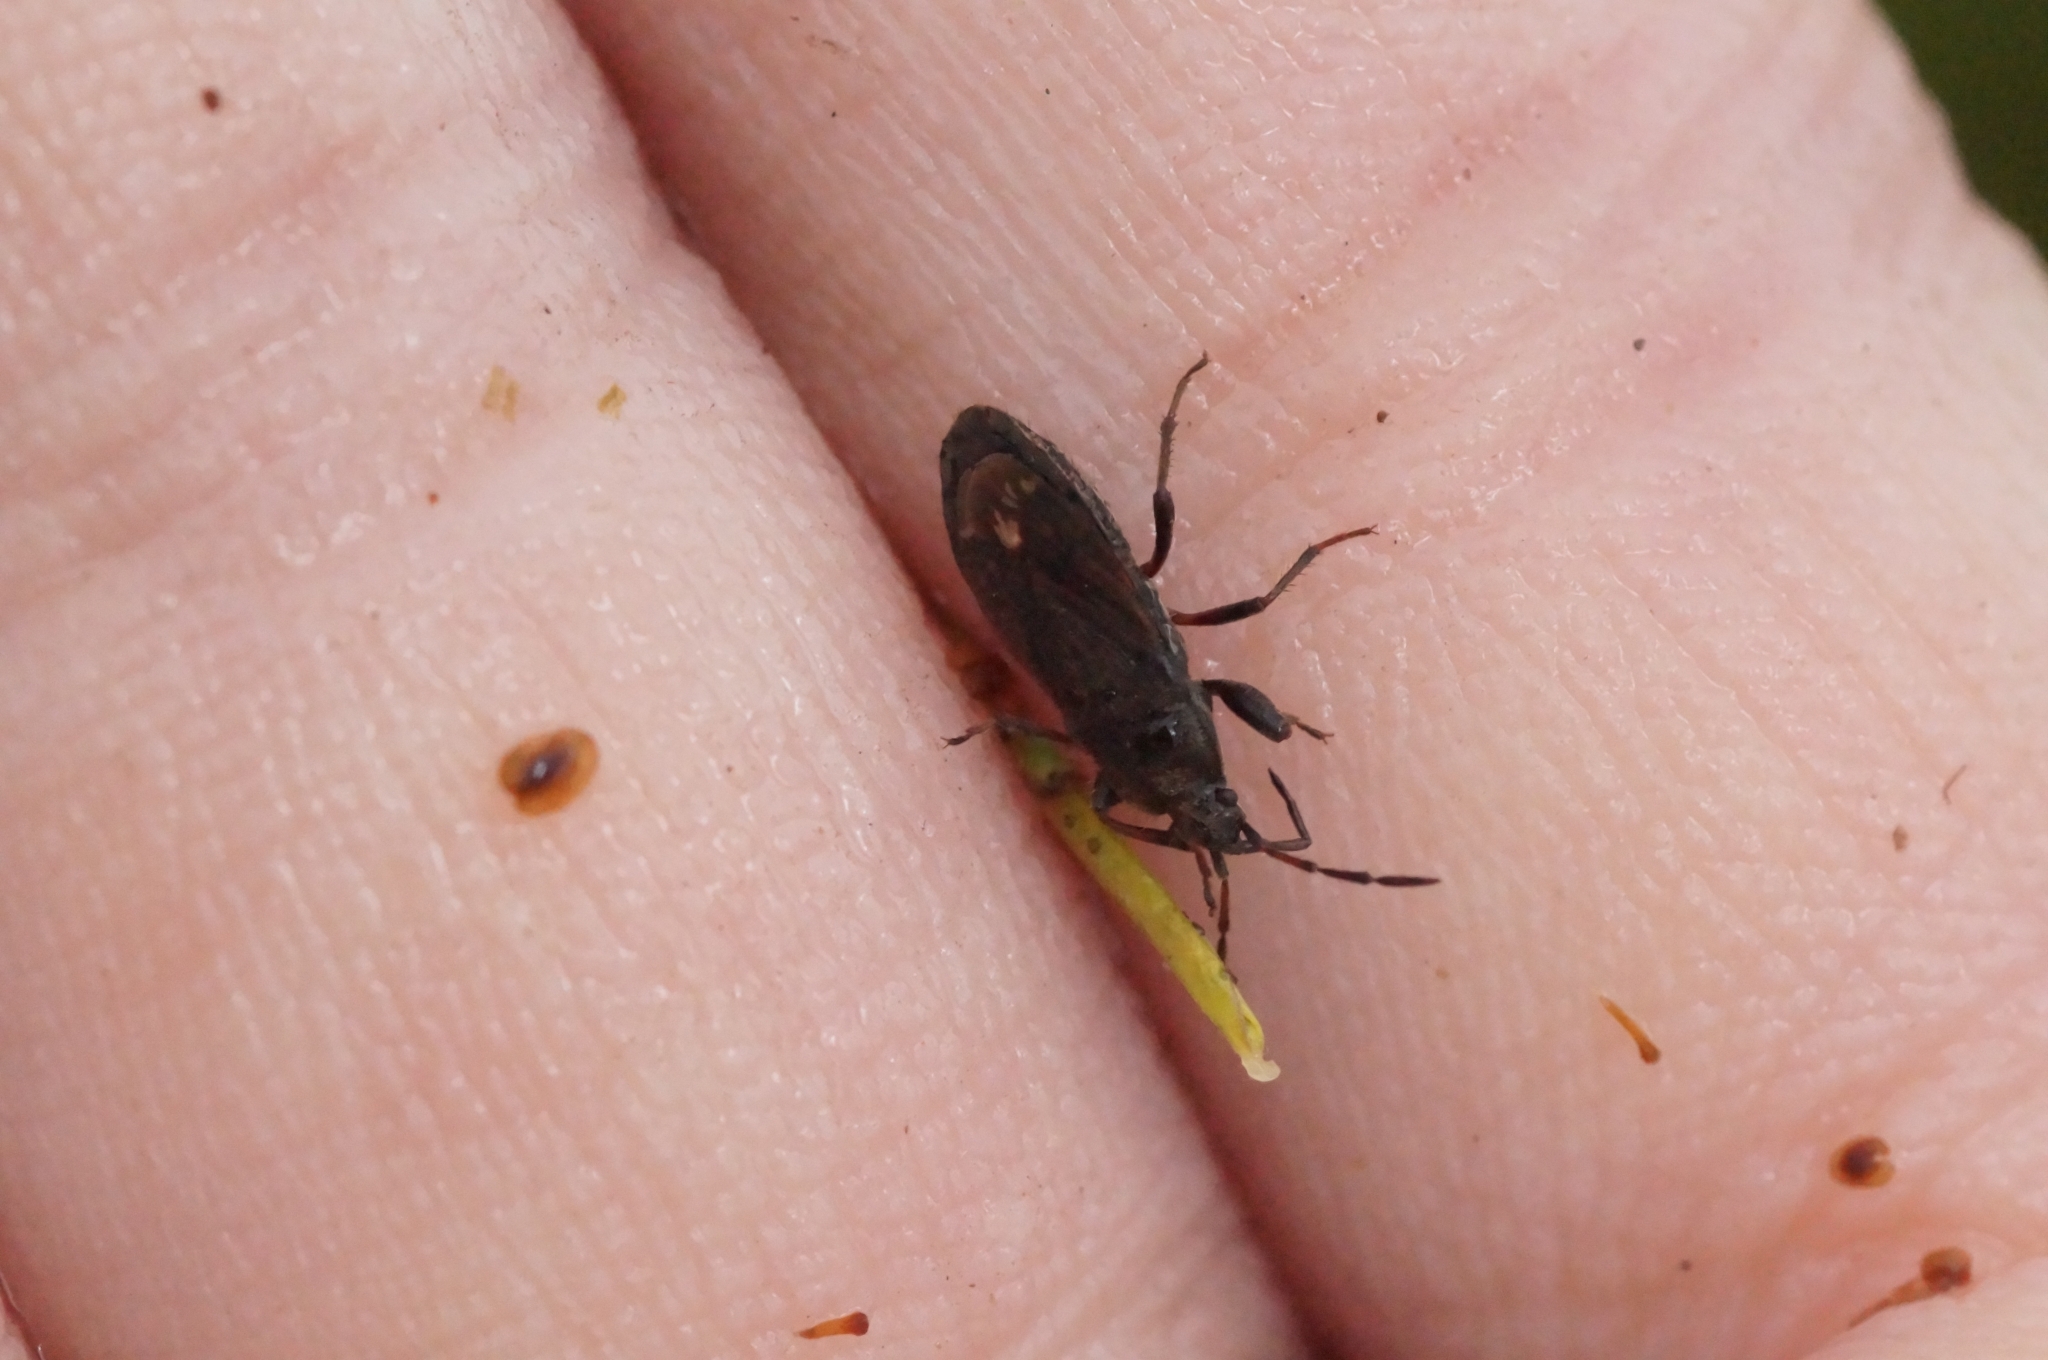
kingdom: Animalia
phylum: Arthropoda
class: Insecta
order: Hemiptera
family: Rhyparochromidae
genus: Megalonotus
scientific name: Megalonotus chiragra
